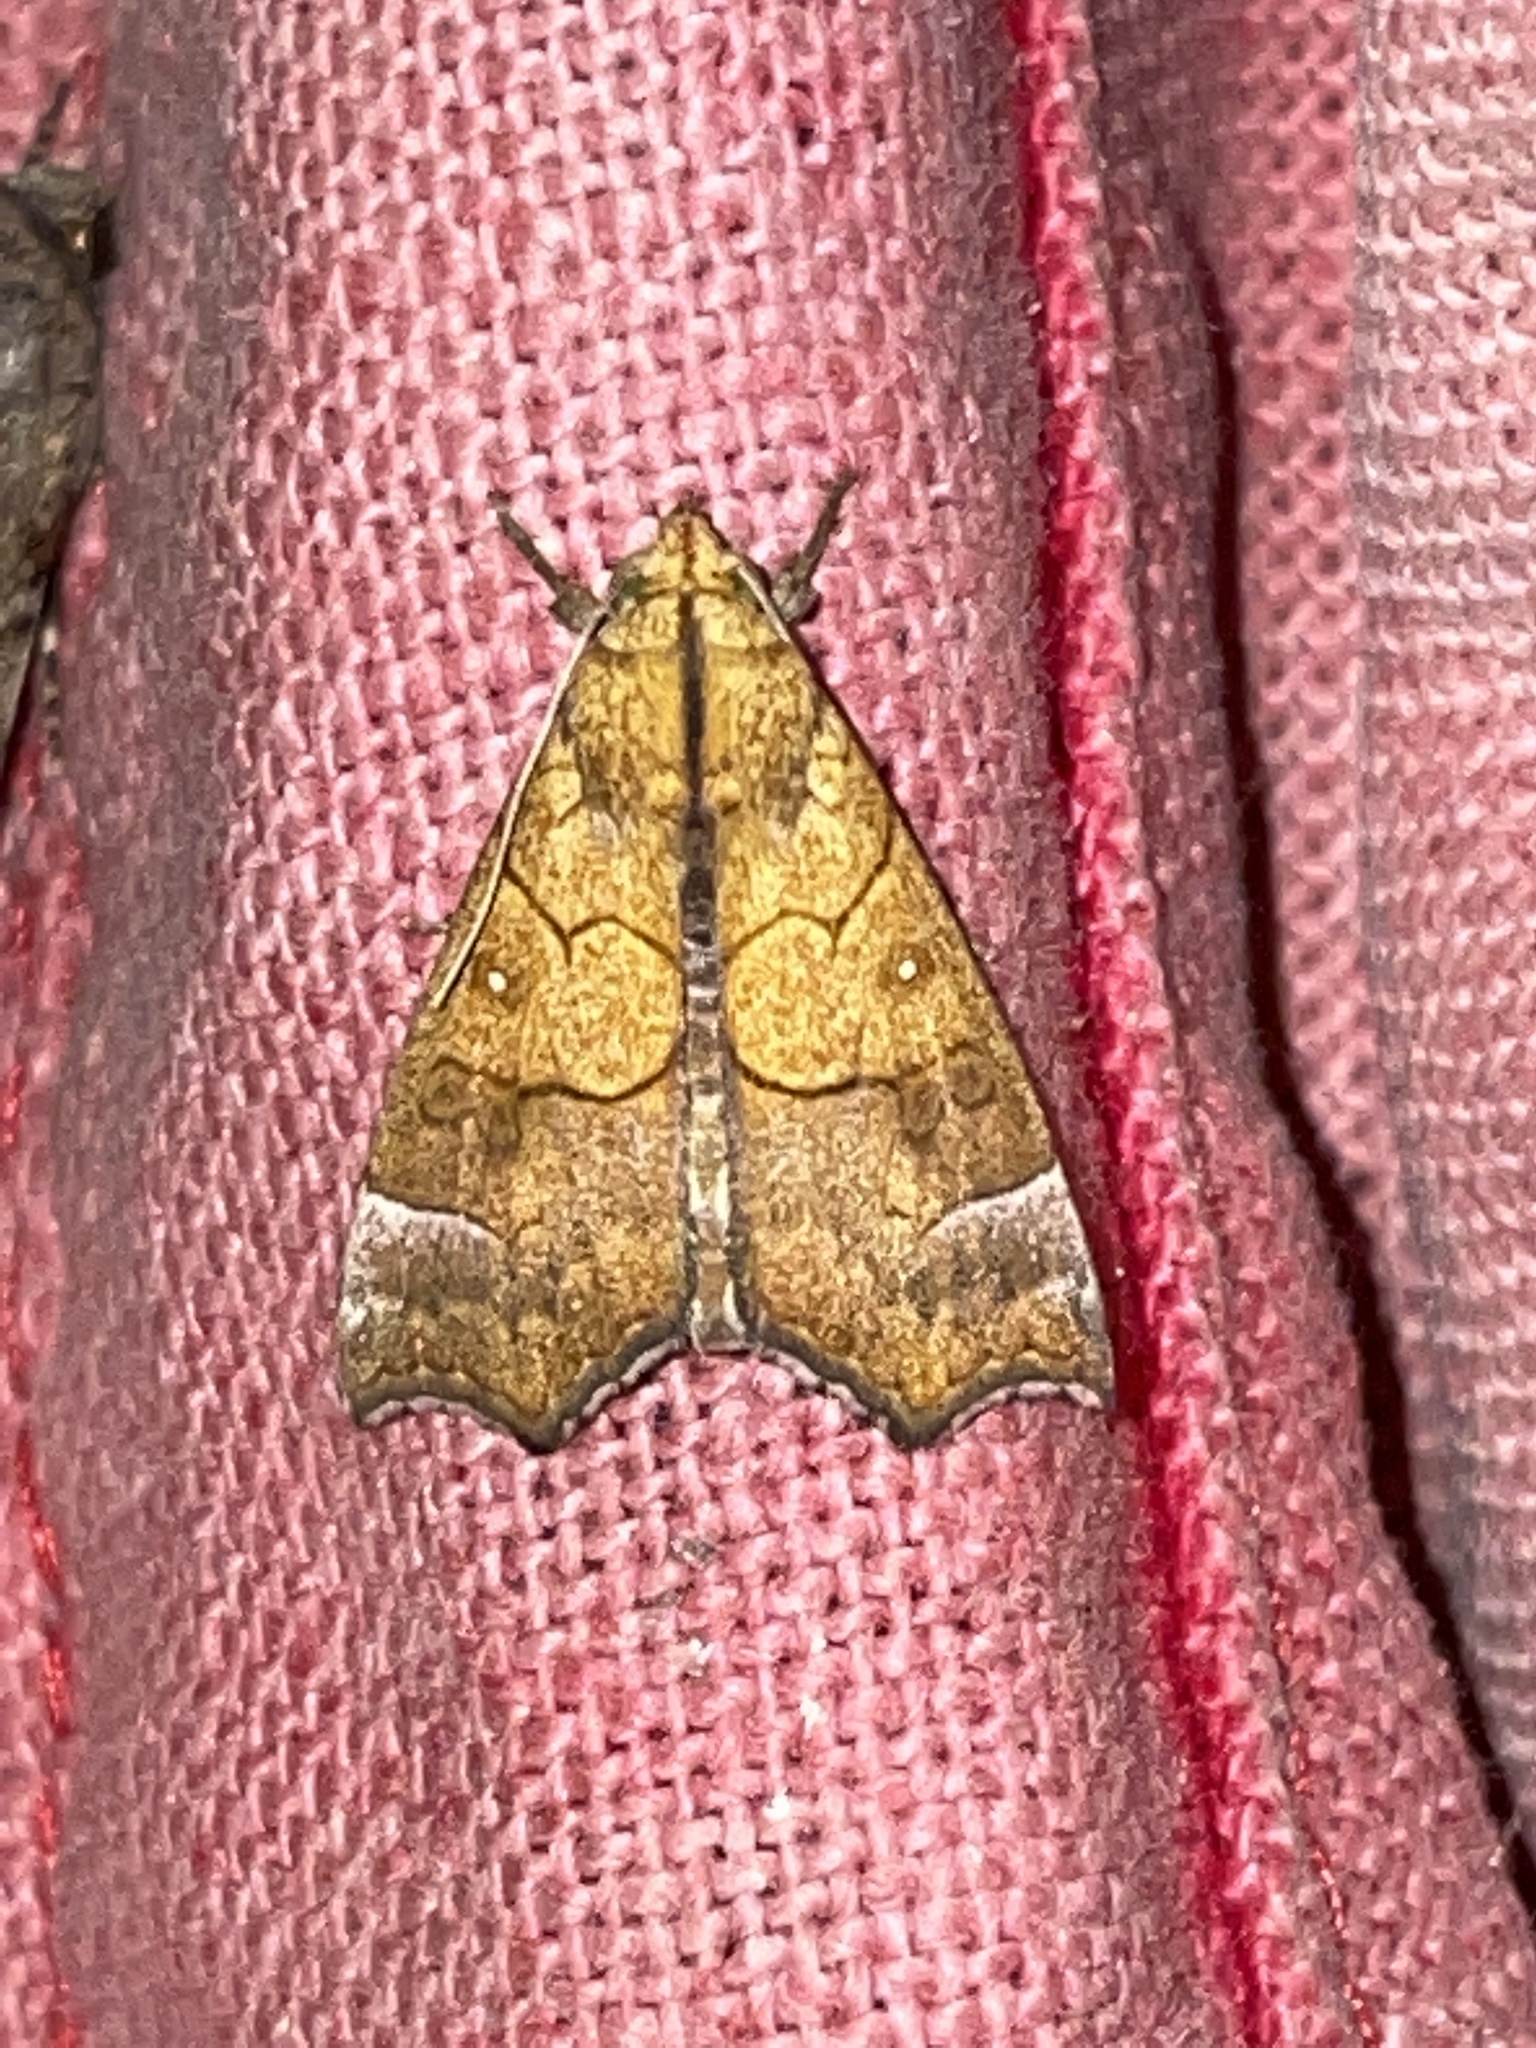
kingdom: Animalia
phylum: Arthropoda
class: Insecta
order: Lepidoptera
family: Erebidae
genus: Anomis
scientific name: Anomis flava
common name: Moth
